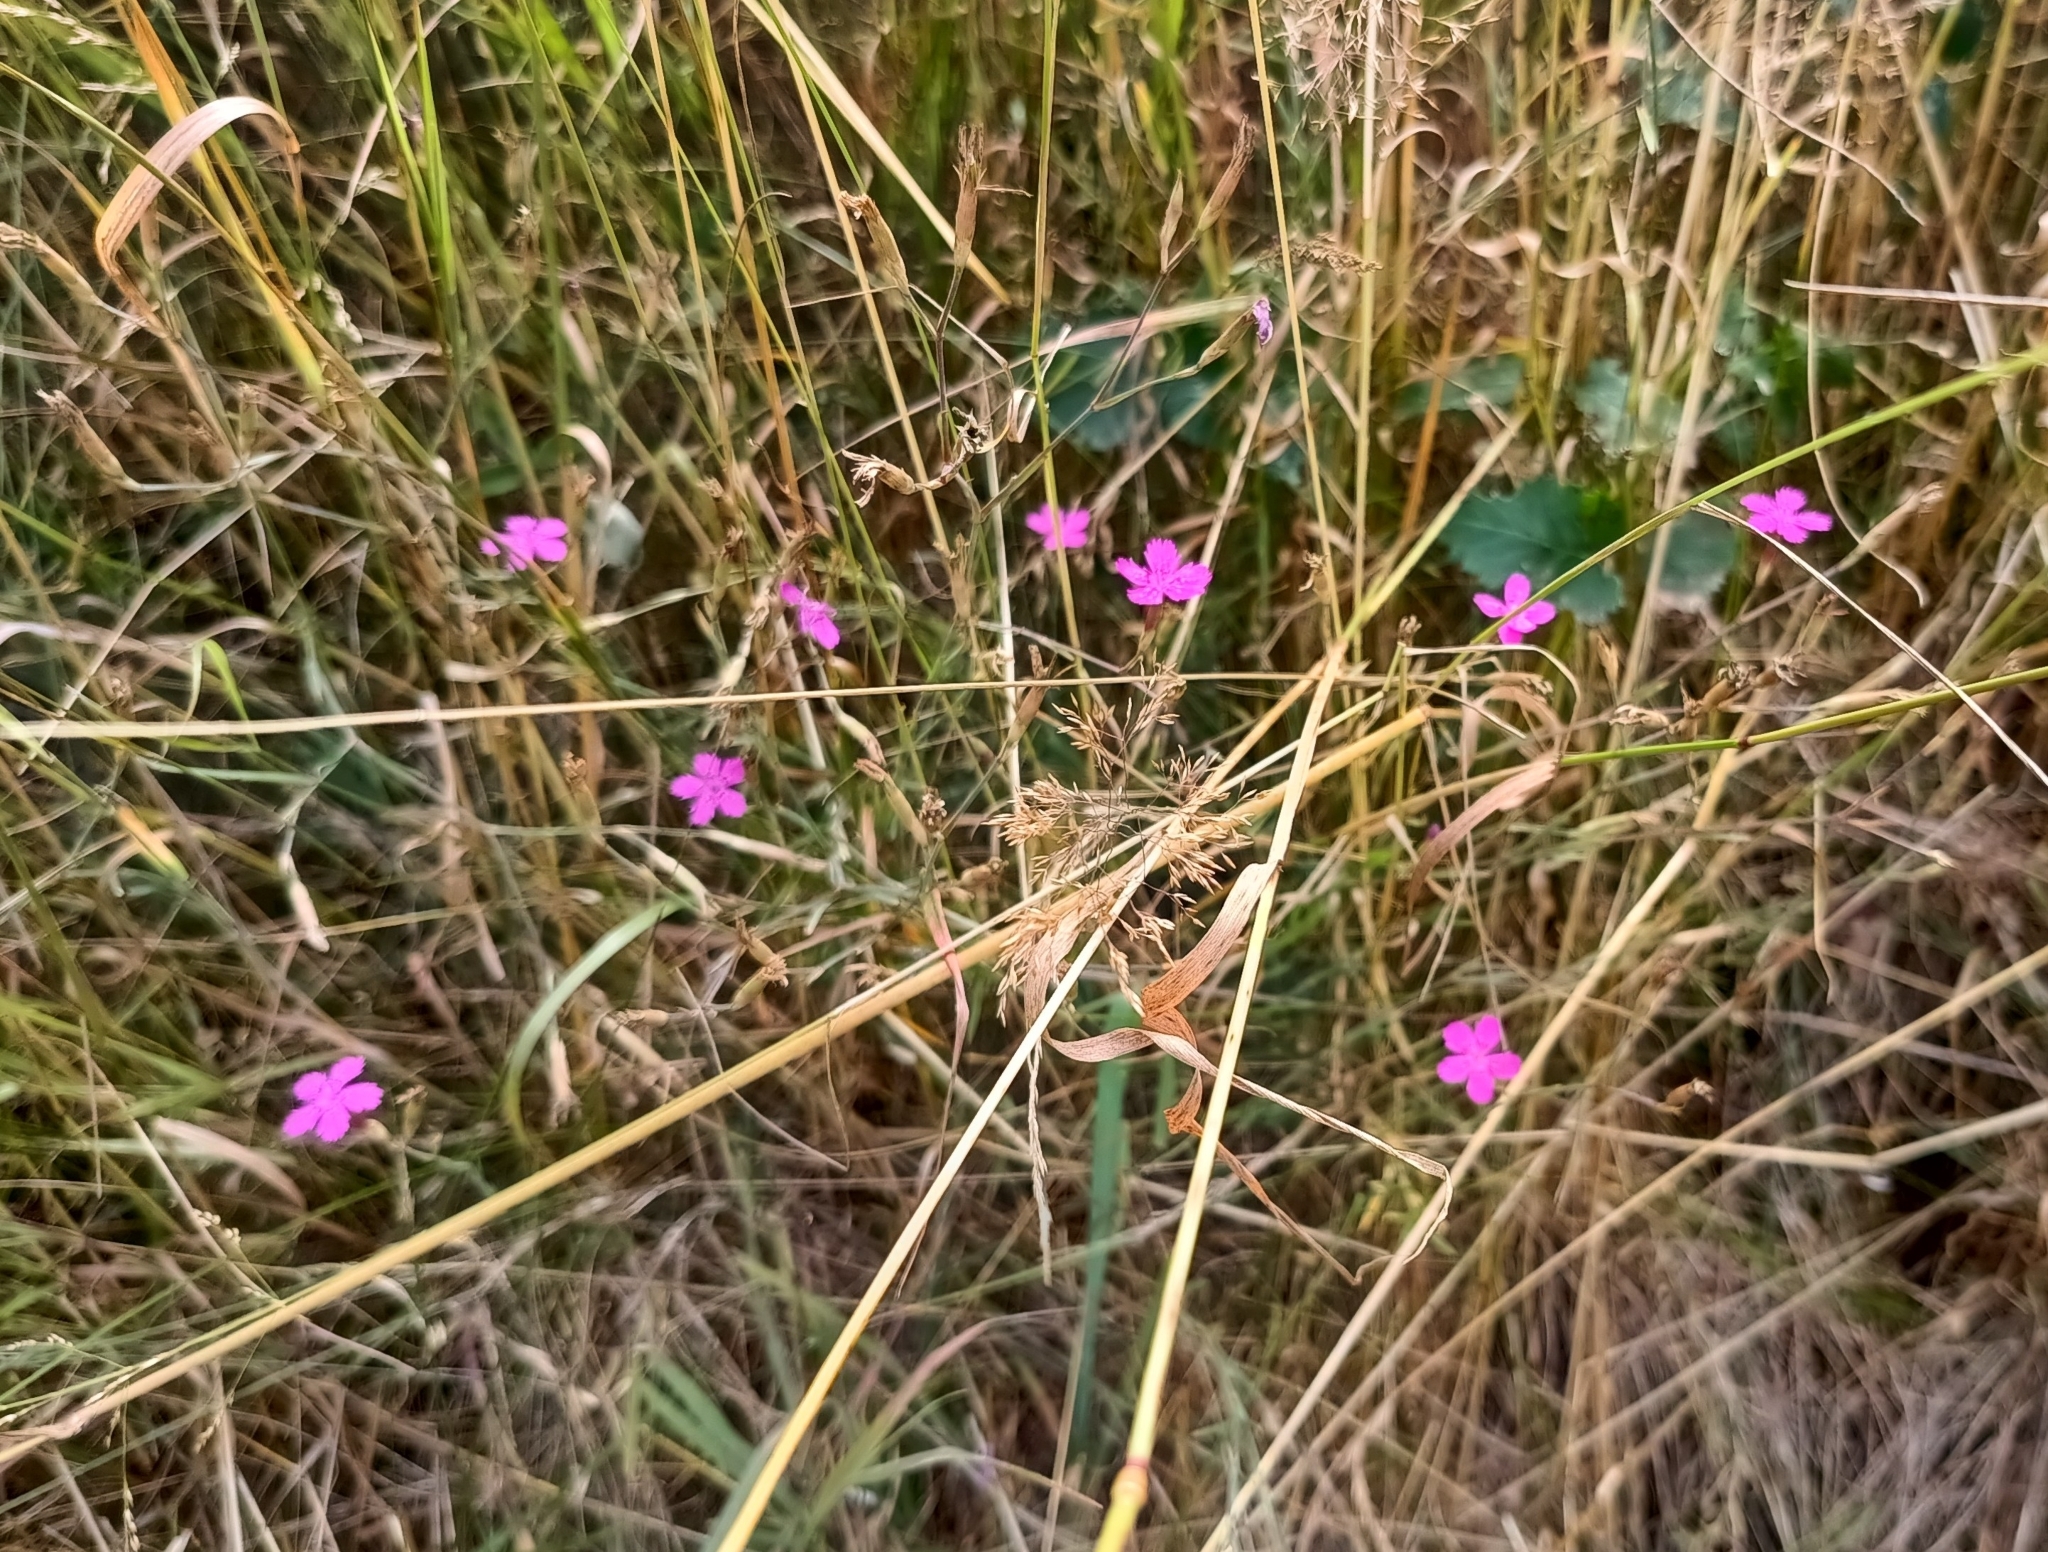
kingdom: Plantae
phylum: Tracheophyta
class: Magnoliopsida
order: Caryophyllales
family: Caryophyllaceae
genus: Dianthus
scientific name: Dianthus deltoides
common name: Maiden pink
